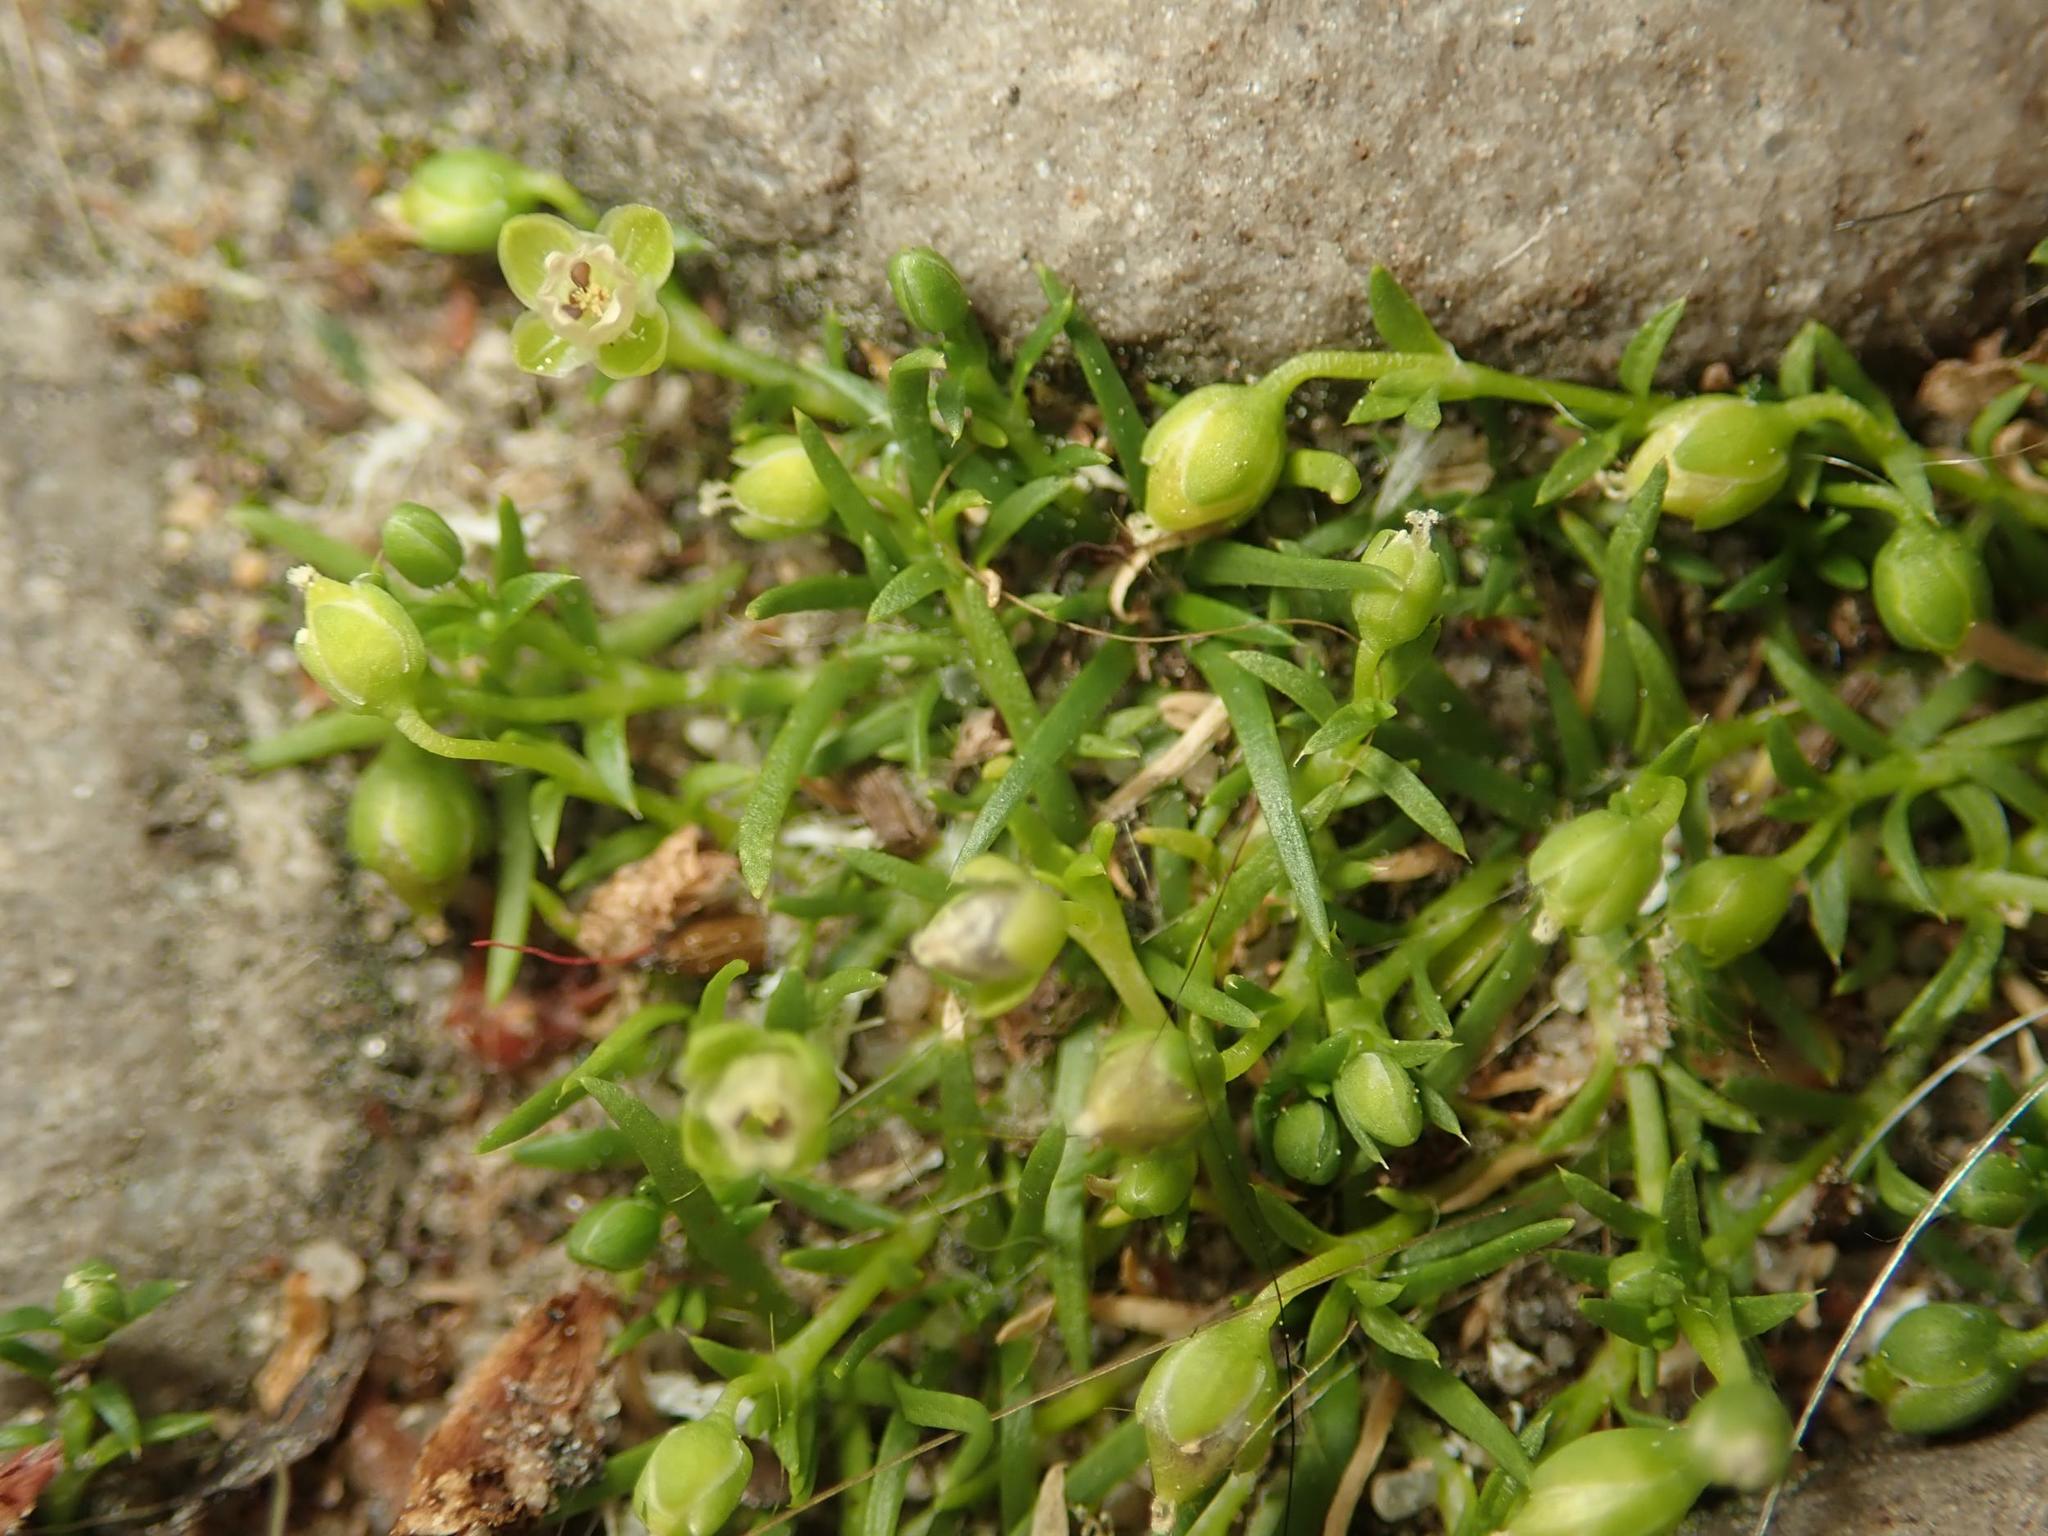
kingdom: Plantae
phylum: Tracheophyta
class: Magnoliopsida
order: Caryophyllales
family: Caryophyllaceae
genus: Sagina
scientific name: Sagina procumbens
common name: Procumbent pearlwort
